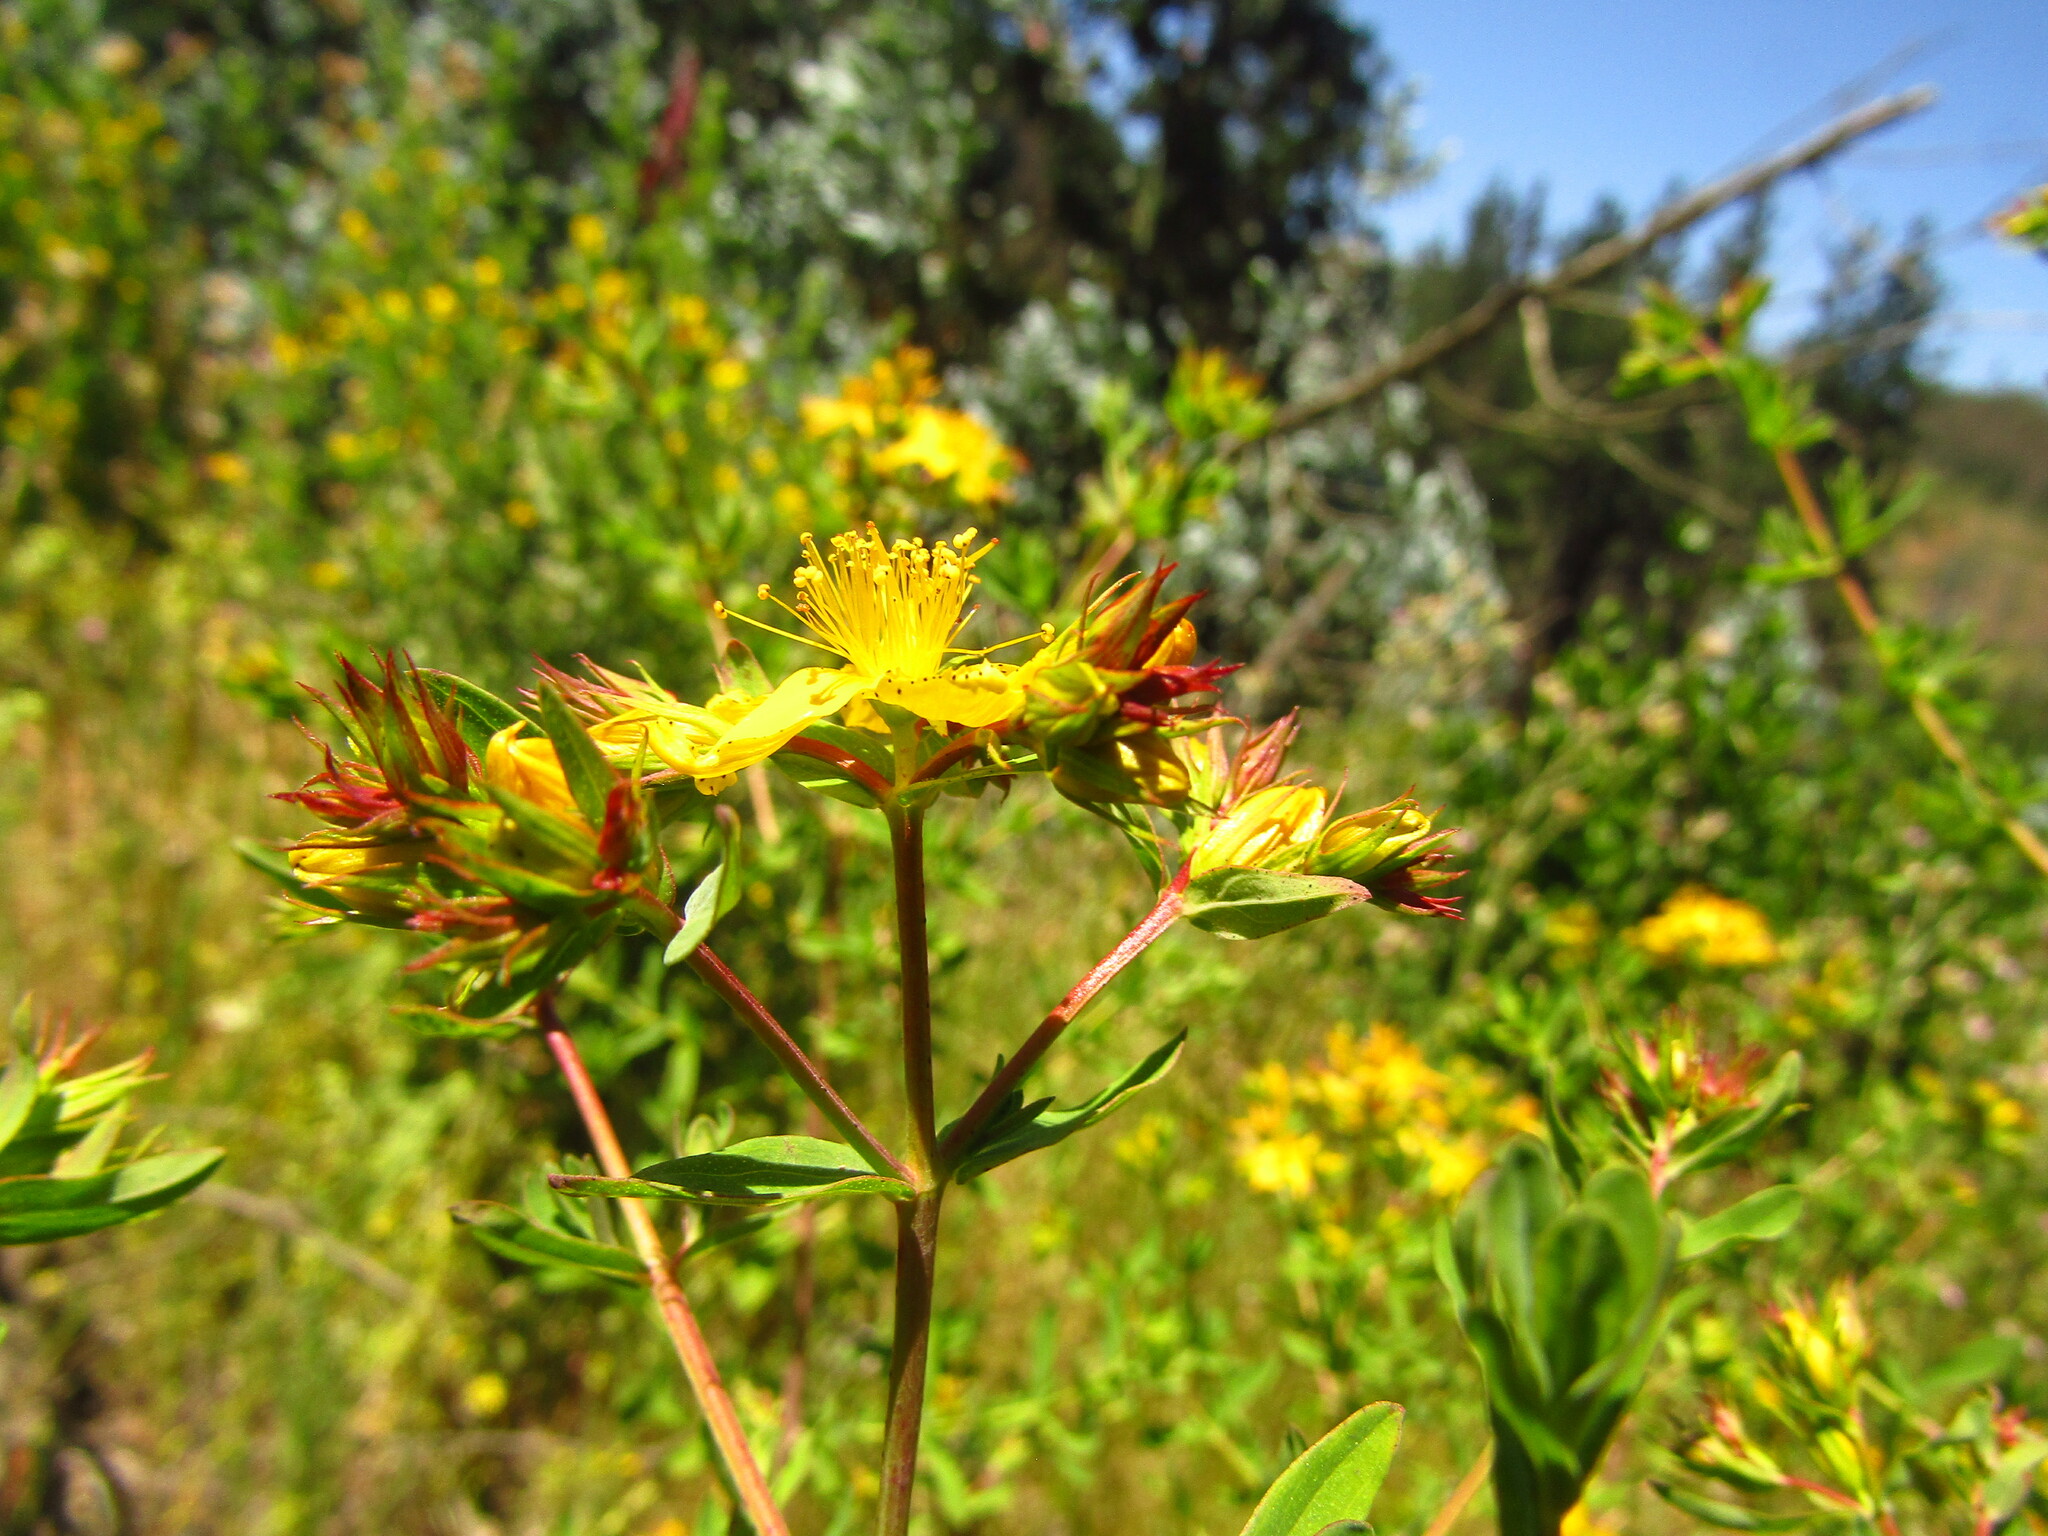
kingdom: Plantae
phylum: Tracheophyta
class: Magnoliopsida
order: Malpighiales
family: Hypericaceae
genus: Hypericum
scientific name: Hypericum perforatum
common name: Common st. johnswort
